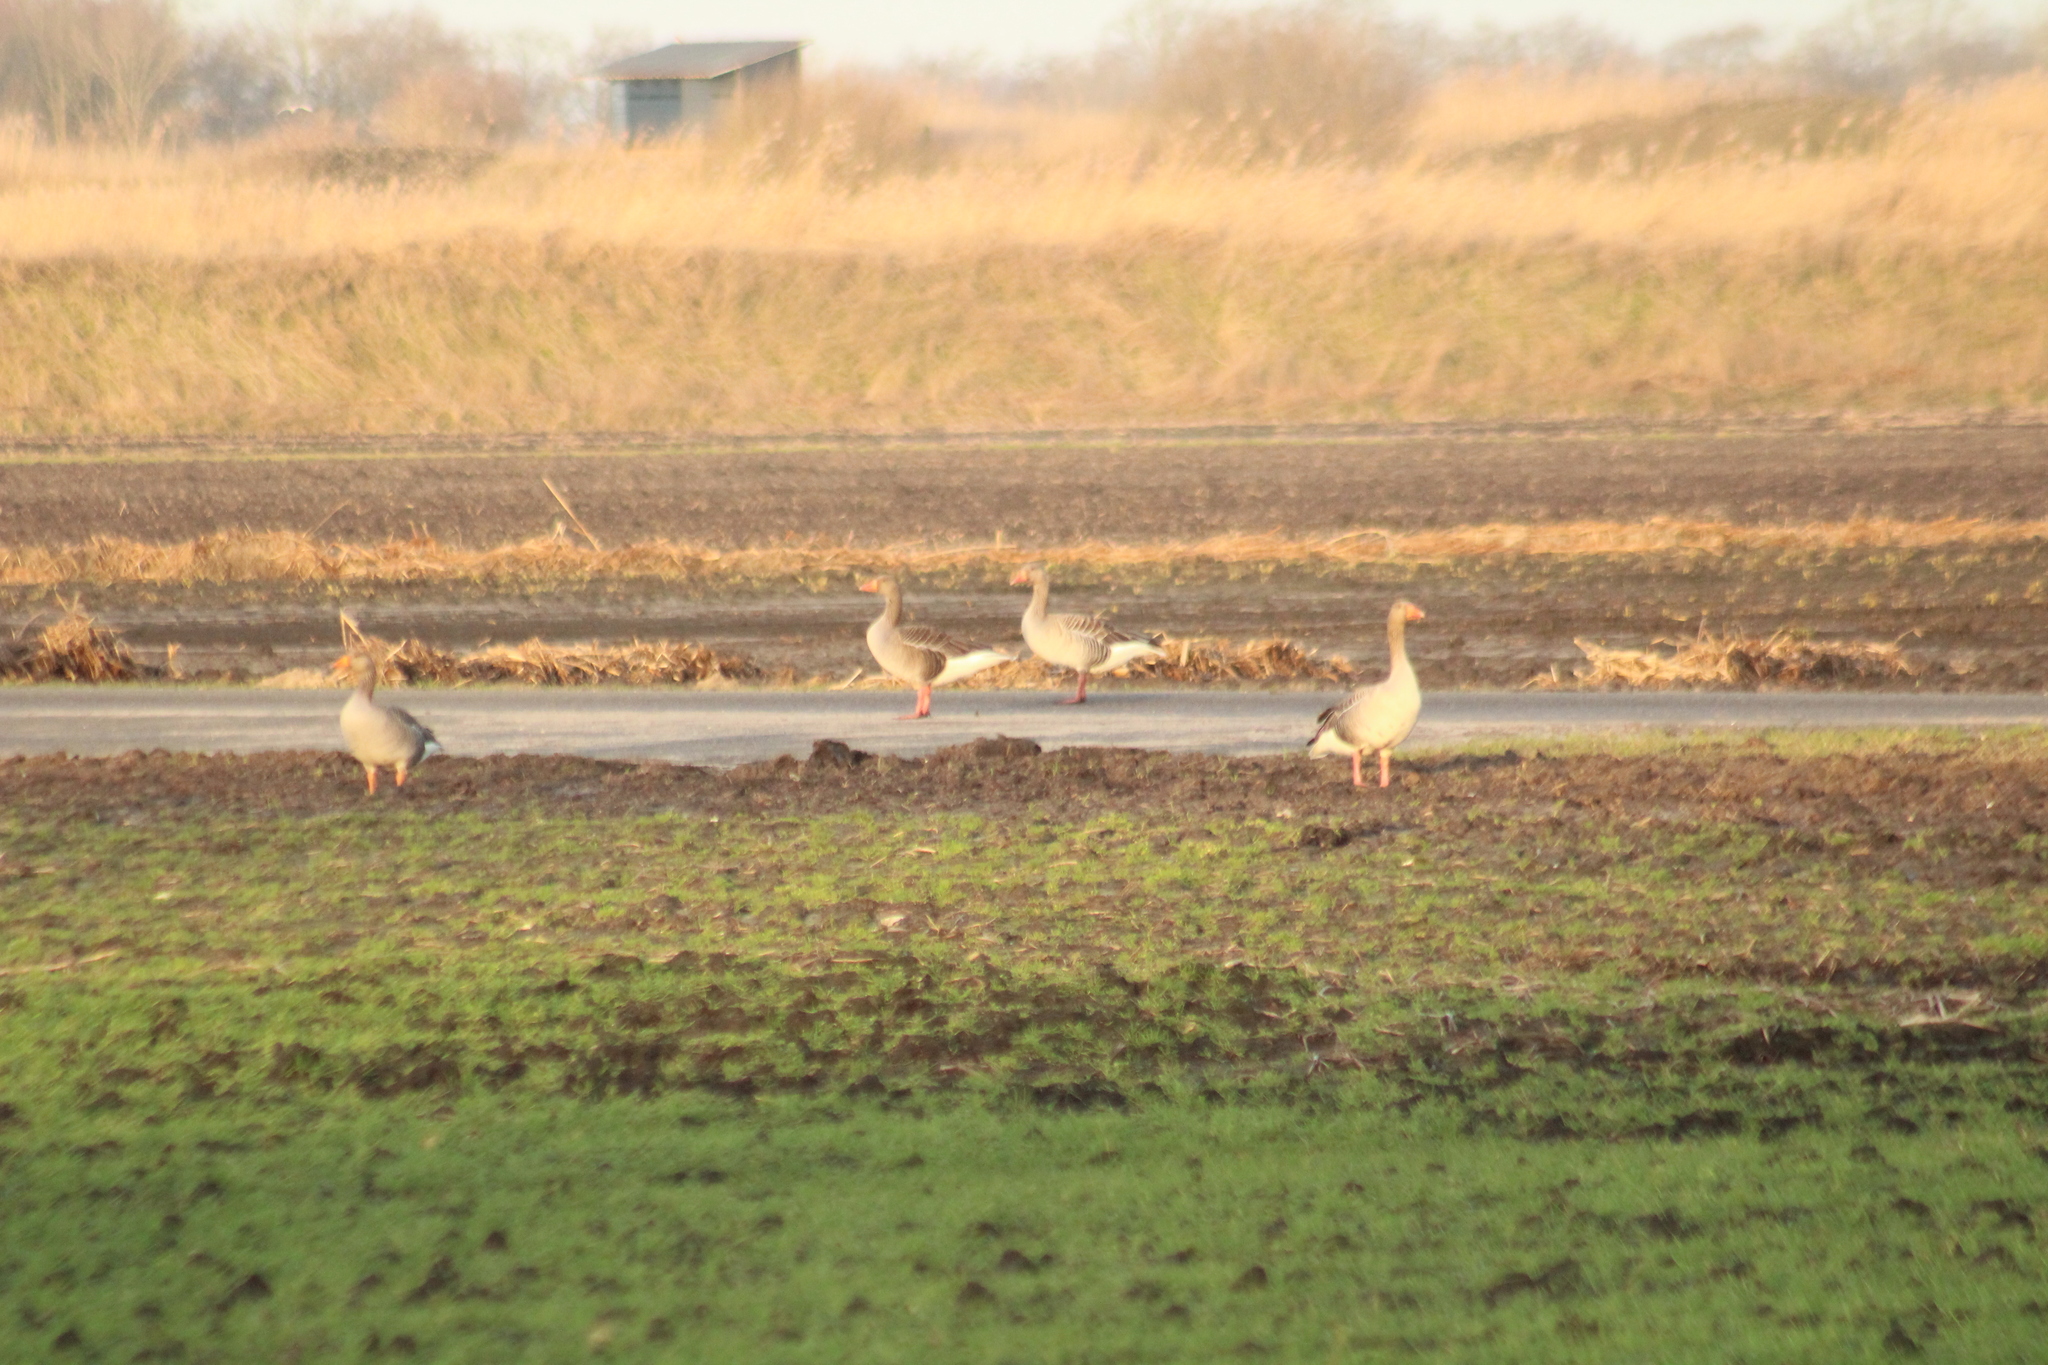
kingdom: Animalia
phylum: Chordata
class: Aves
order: Anseriformes
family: Anatidae
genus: Anser
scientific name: Anser anser
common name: Greylag goose
